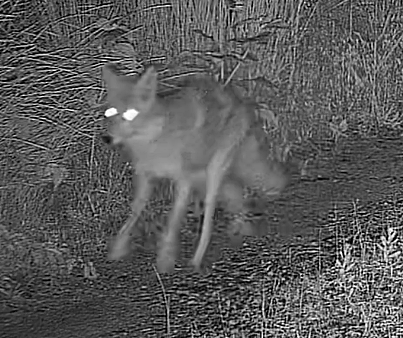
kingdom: Animalia
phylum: Chordata
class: Mammalia
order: Carnivora
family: Canidae
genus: Canis
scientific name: Canis latrans
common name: Coyote
